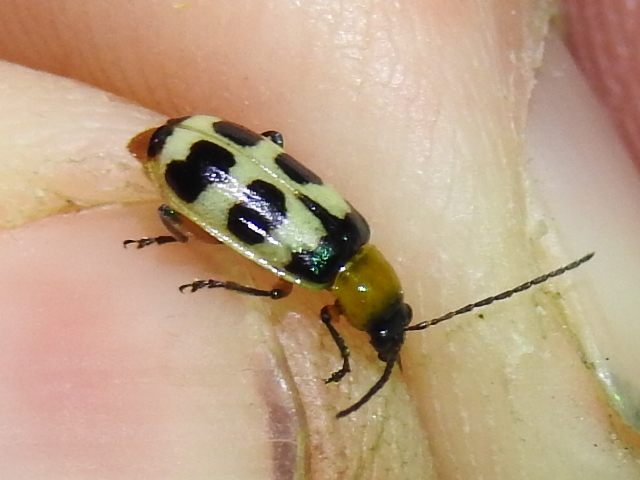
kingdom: Animalia
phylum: Arthropoda
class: Insecta
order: Coleoptera
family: Chrysomelidae
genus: Paranapiacaba
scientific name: Paranapiacaba tricincta
